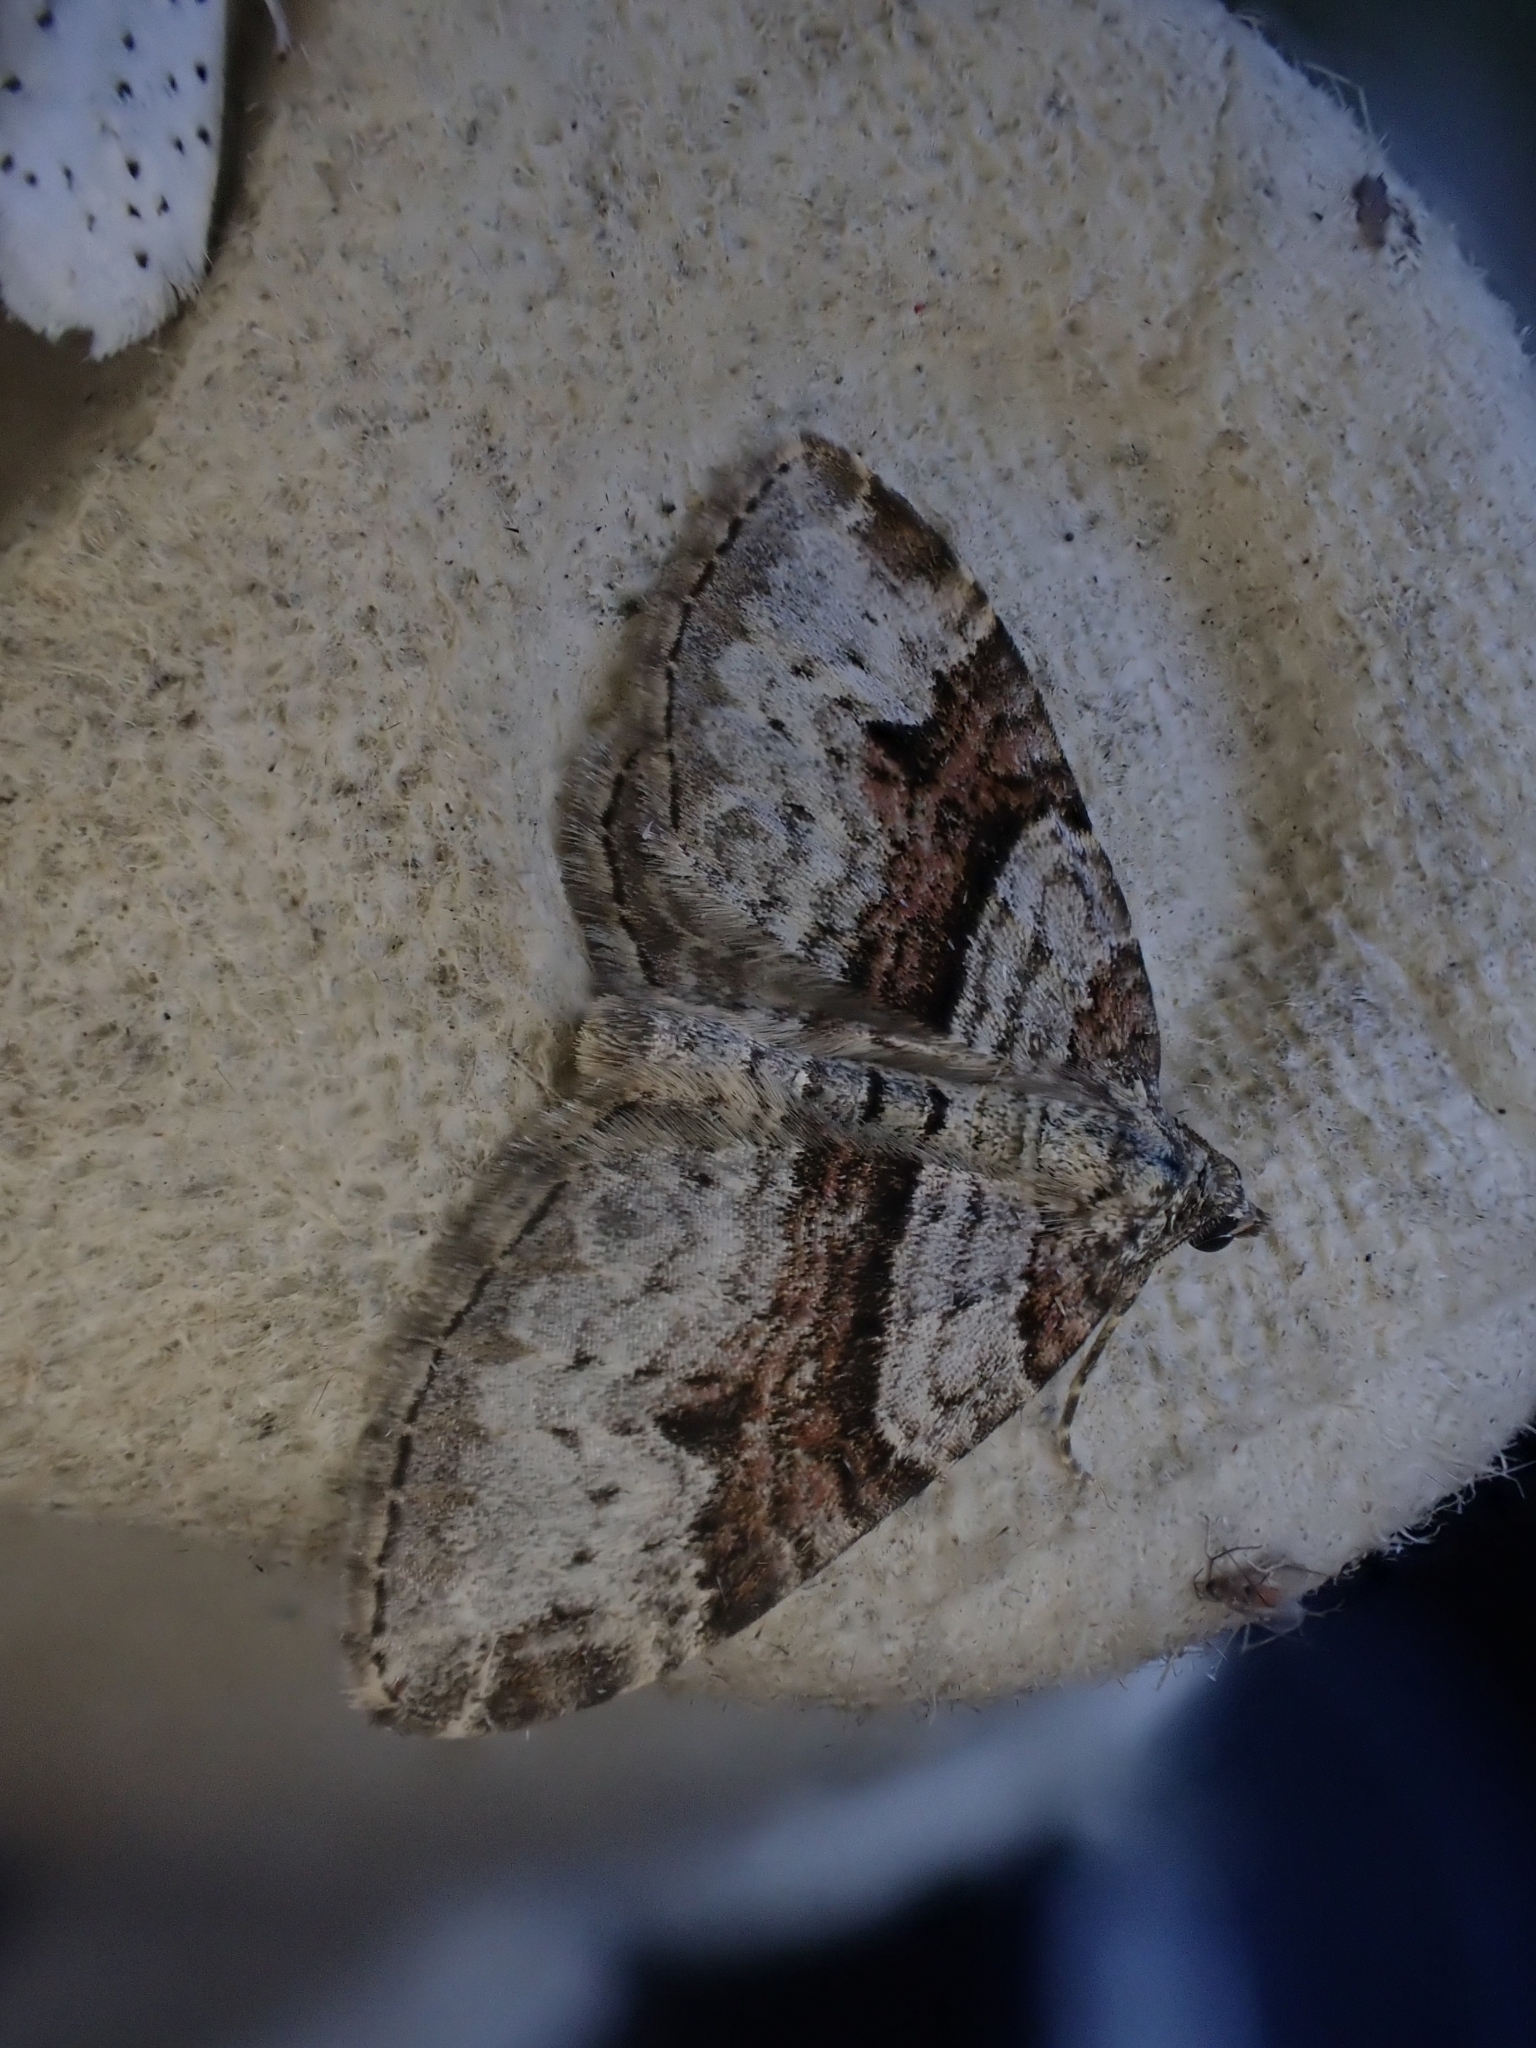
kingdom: Animalia
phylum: Arthropoda
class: Insecta
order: Lepidoptera
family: Geometridae
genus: Xanthorhoe
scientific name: Xanthorhoe designata
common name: Flame carpet
